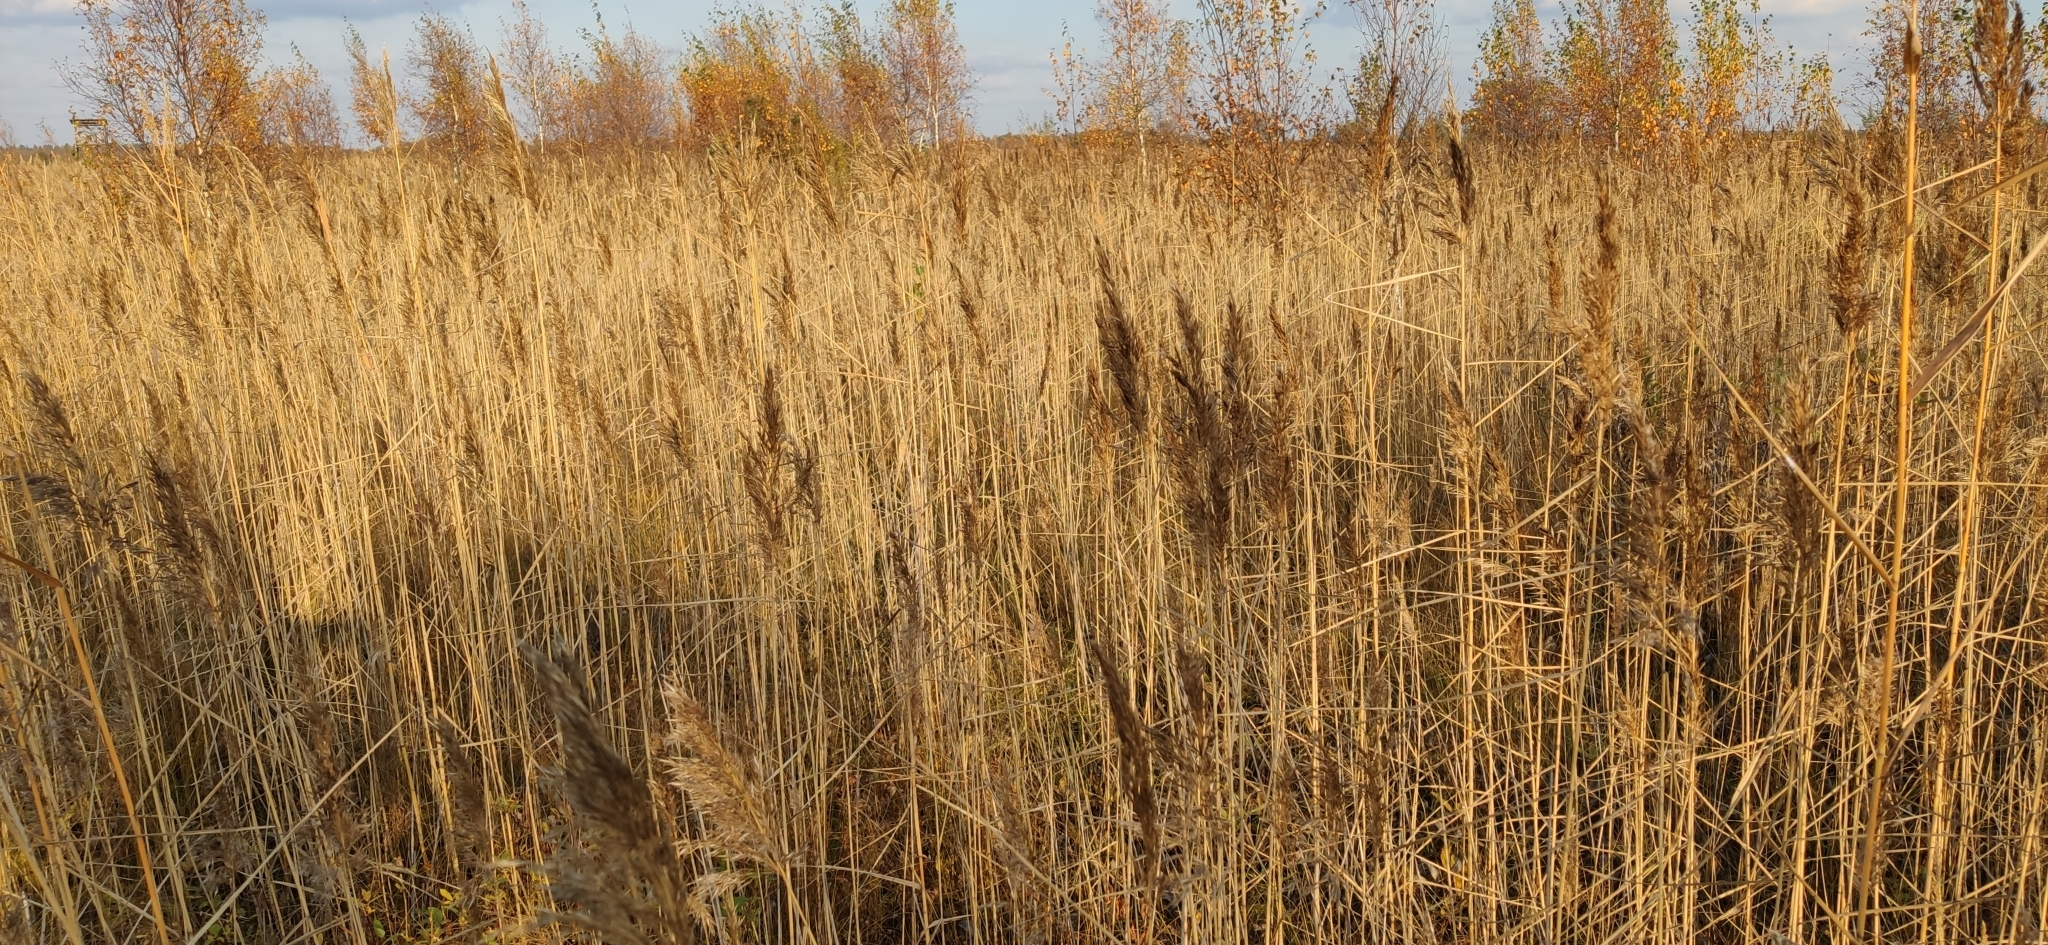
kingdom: Plantae
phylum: Tracheophyta
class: Liliopsida
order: Poales
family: Poaceae
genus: Phragmites
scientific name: Phragmites australis
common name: Common reed
